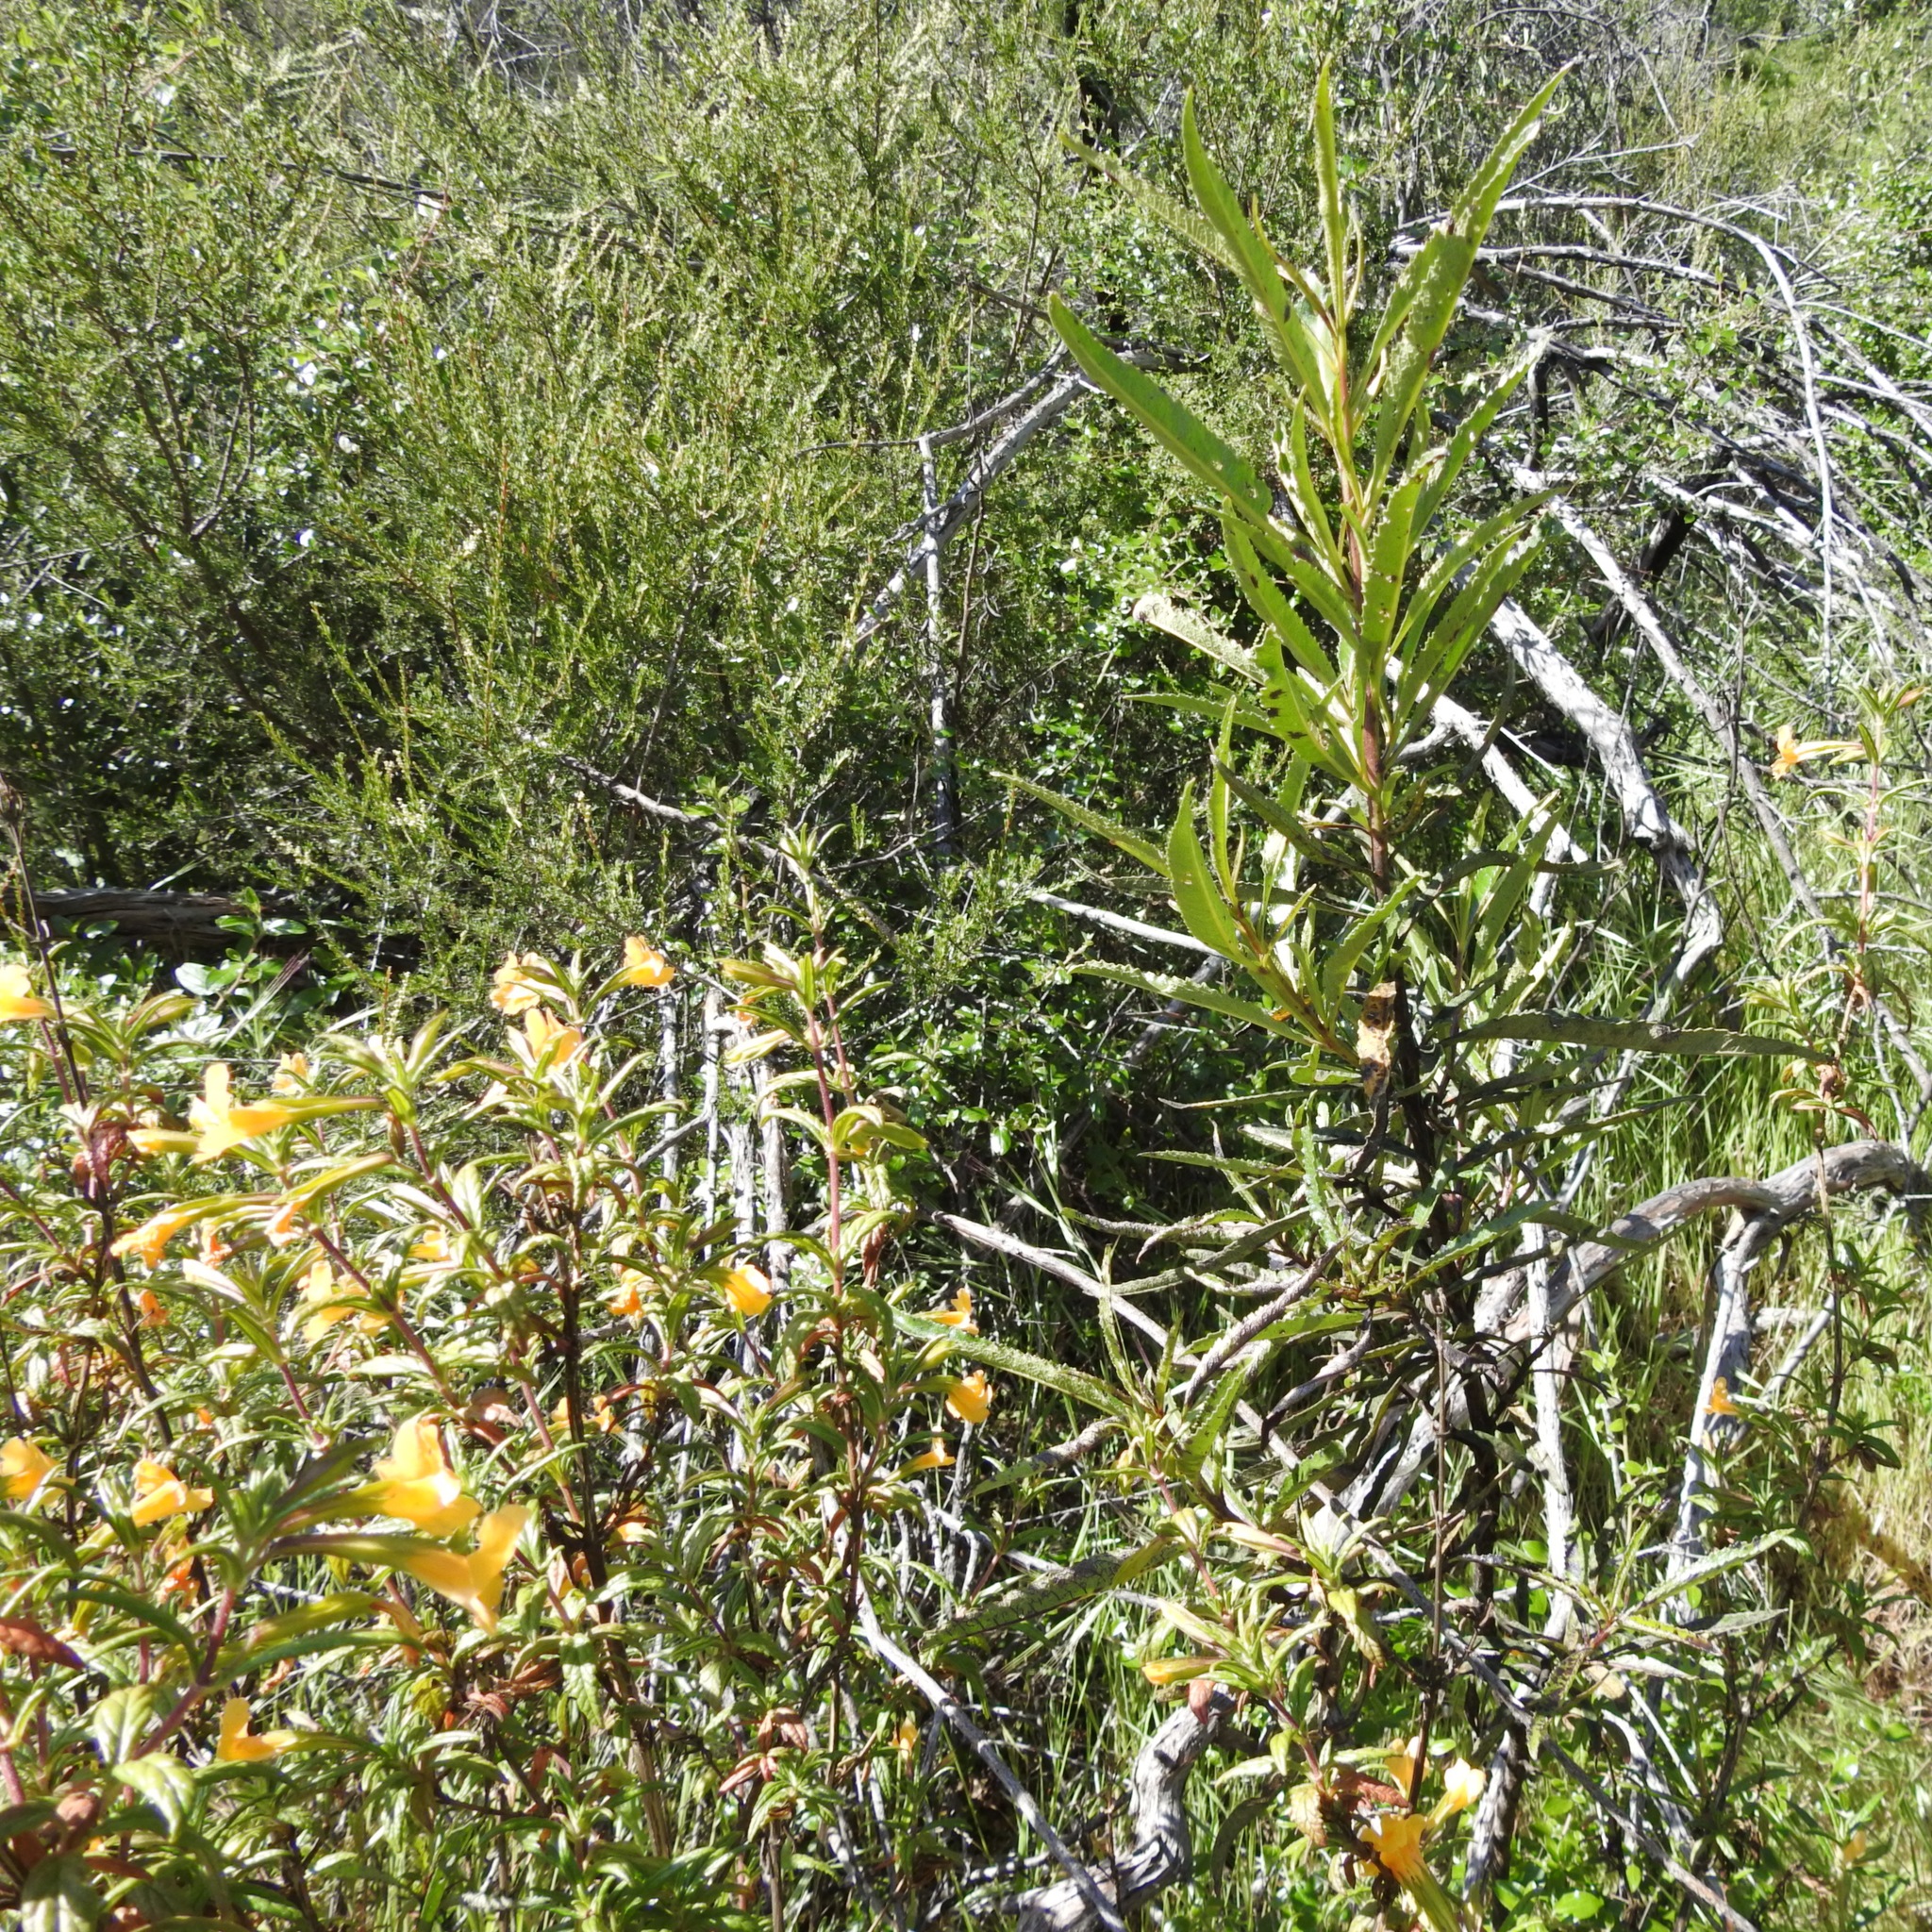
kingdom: Plantae
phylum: Tracheophyta
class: Magnoliopsida
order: Boraginales
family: Namaceae
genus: Eriodictyon
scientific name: Eriodictyon californicum
